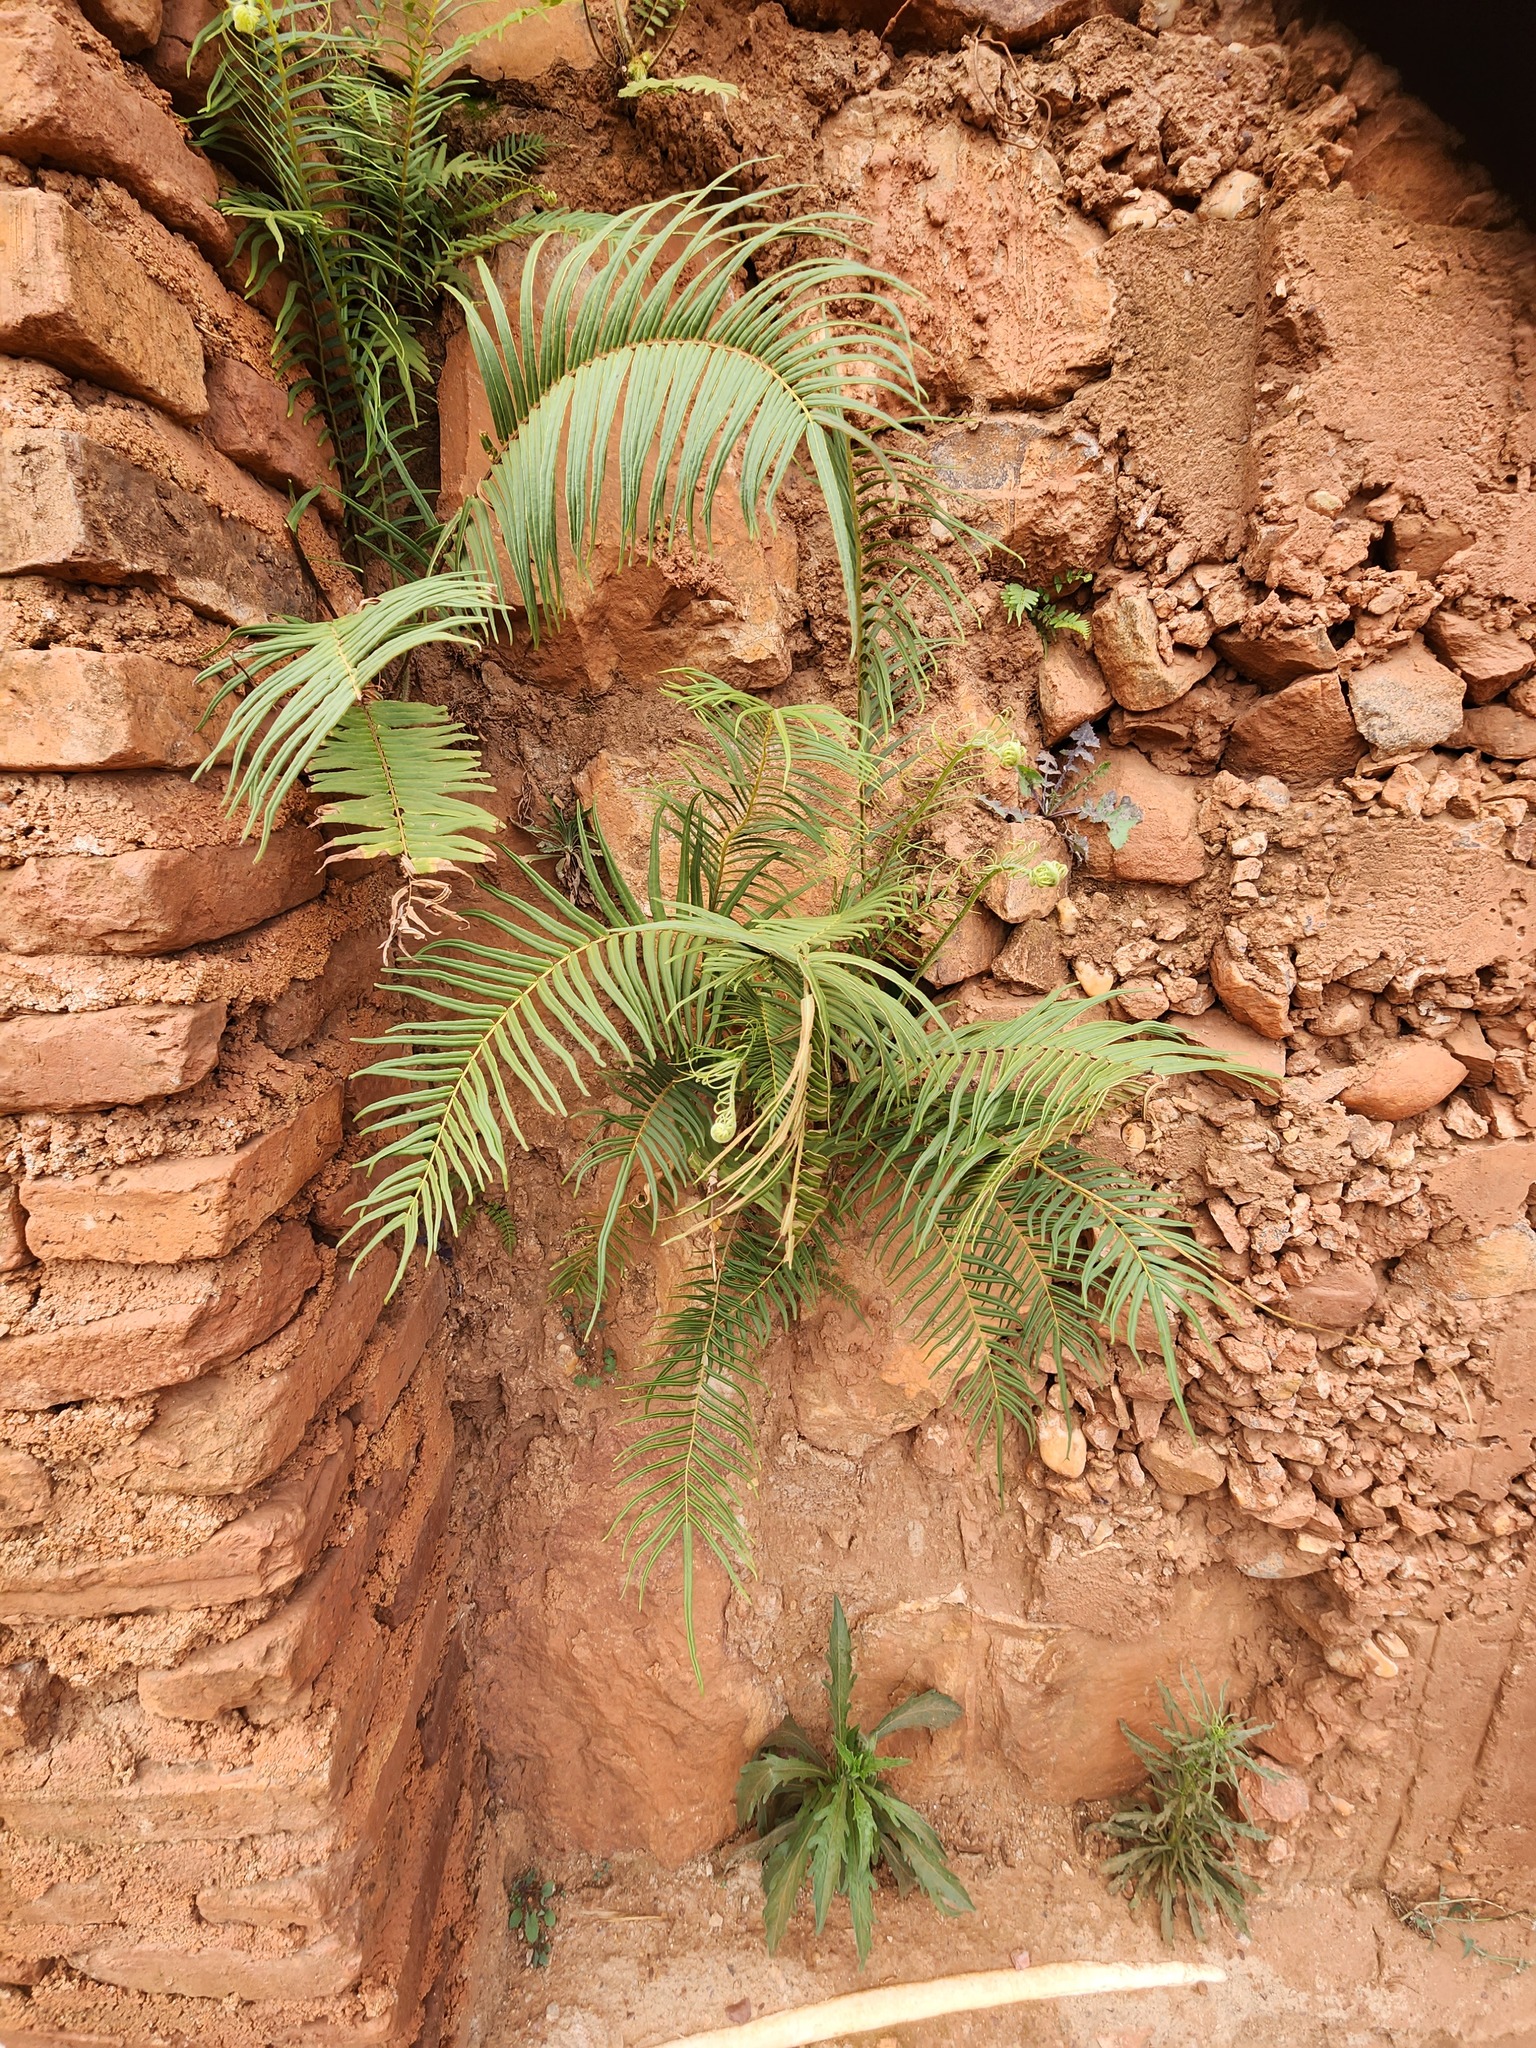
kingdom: Plantae
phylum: Tracheophyta
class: Polypodiopsida
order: Polypodiales
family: Pteridaceae
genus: Pteris
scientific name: Pteris vittata
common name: Ladder brake
